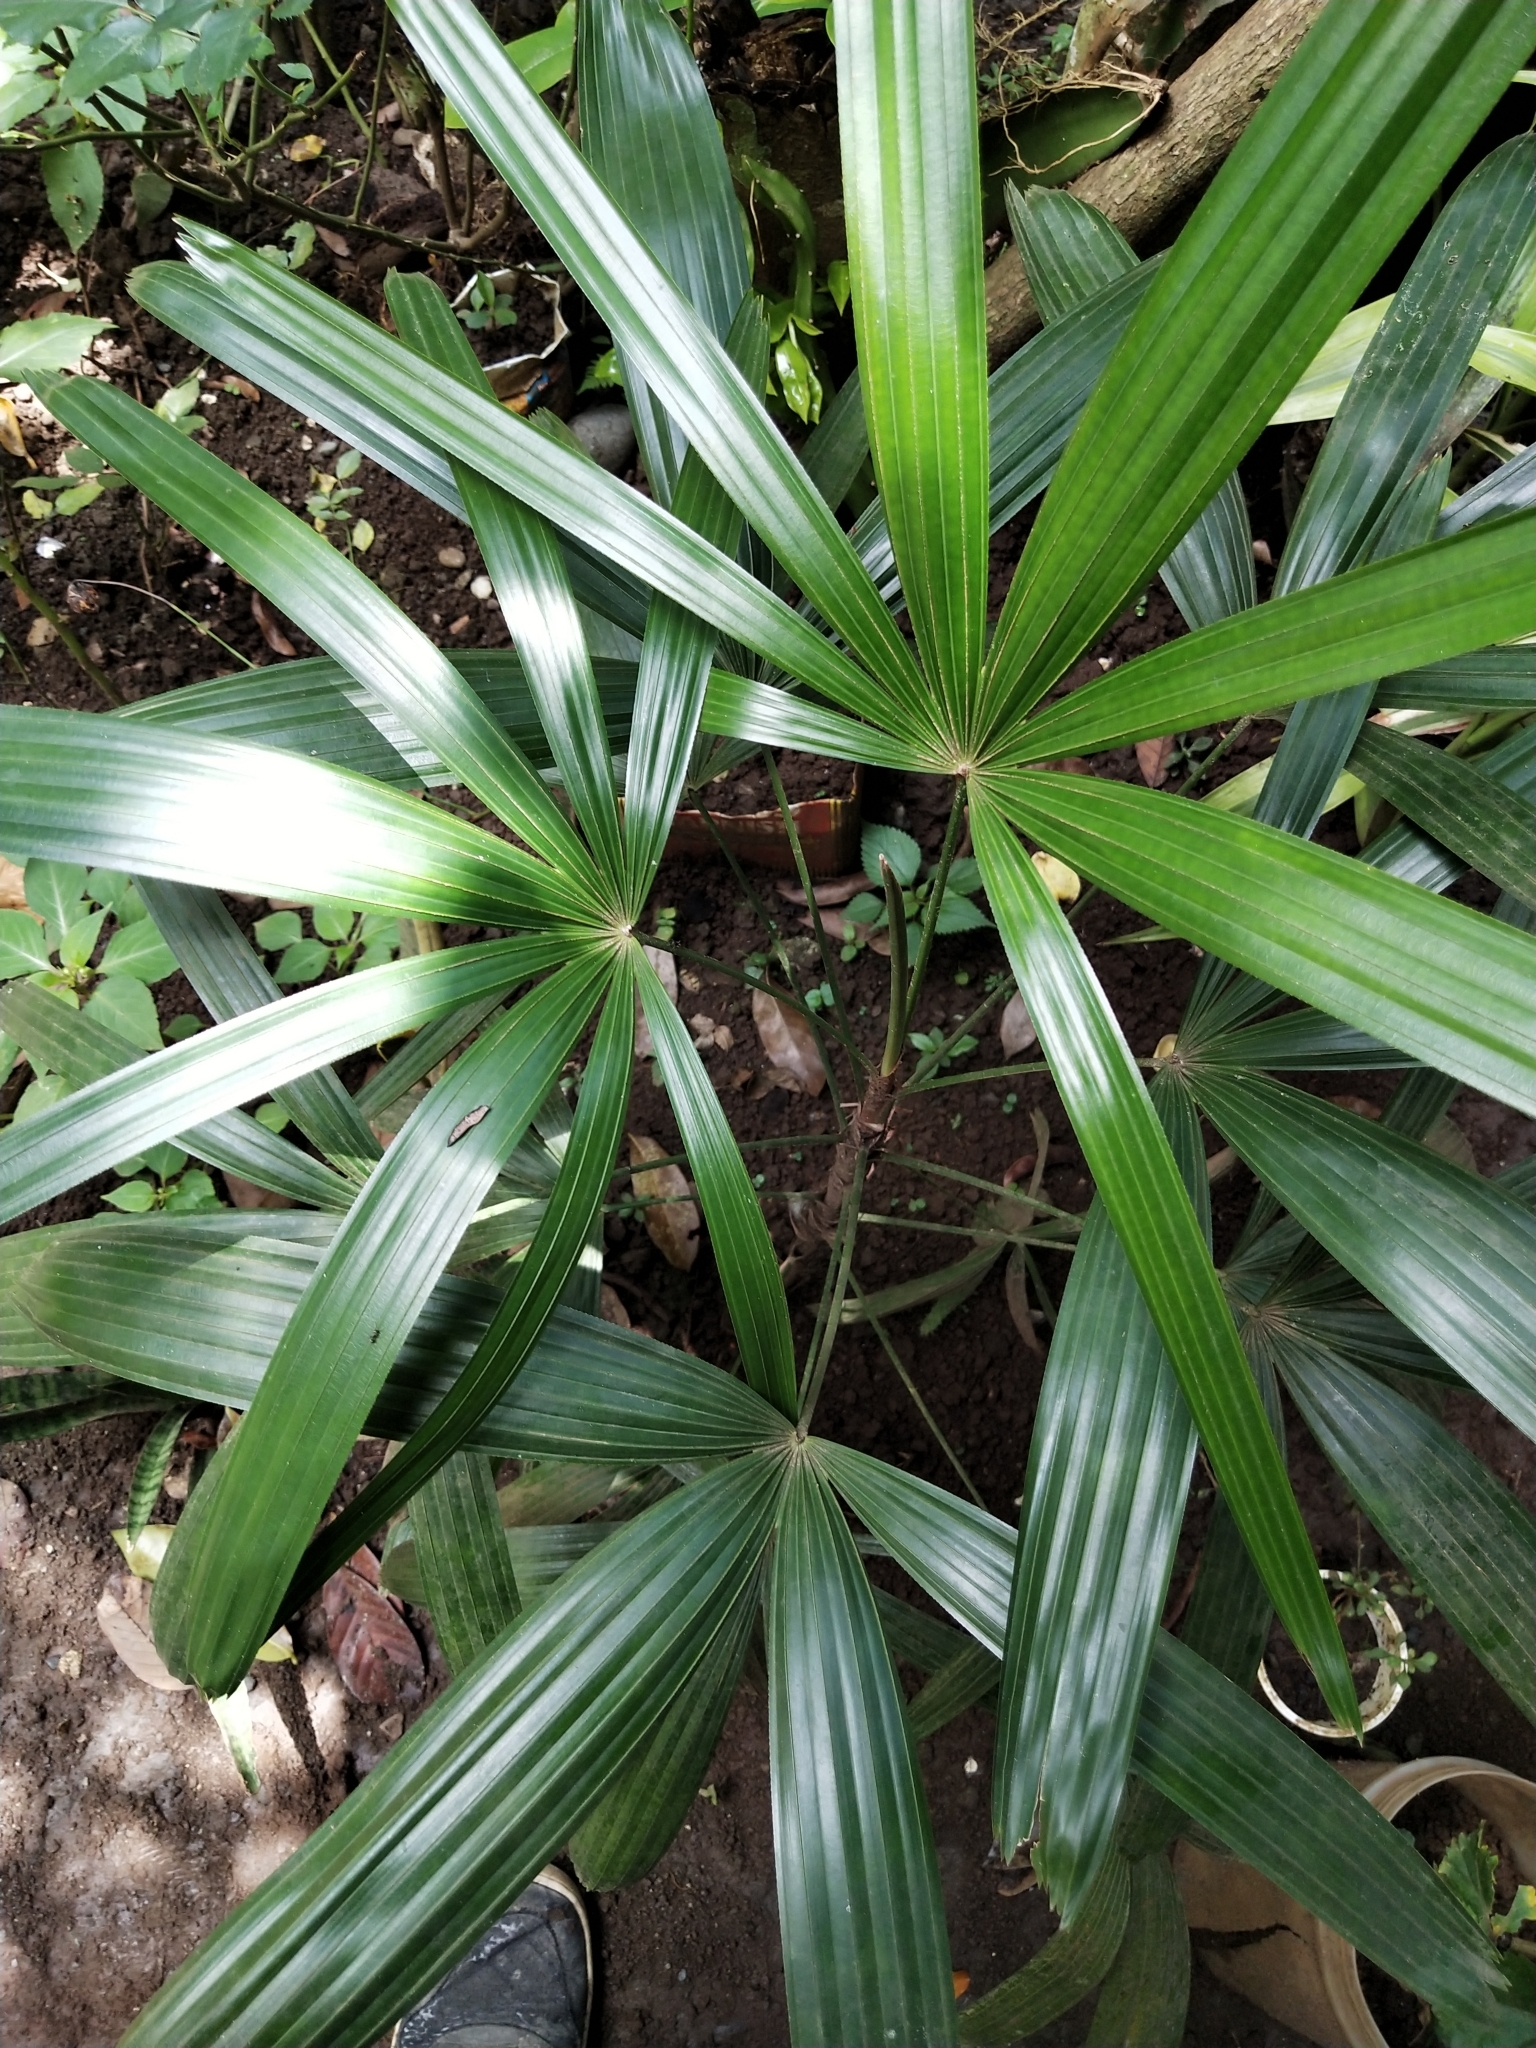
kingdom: Plantae
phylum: Tracheophyta
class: Liliopsida
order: Arecales
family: Arecaceae
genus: Rhapis
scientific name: Rhapis excelsa
